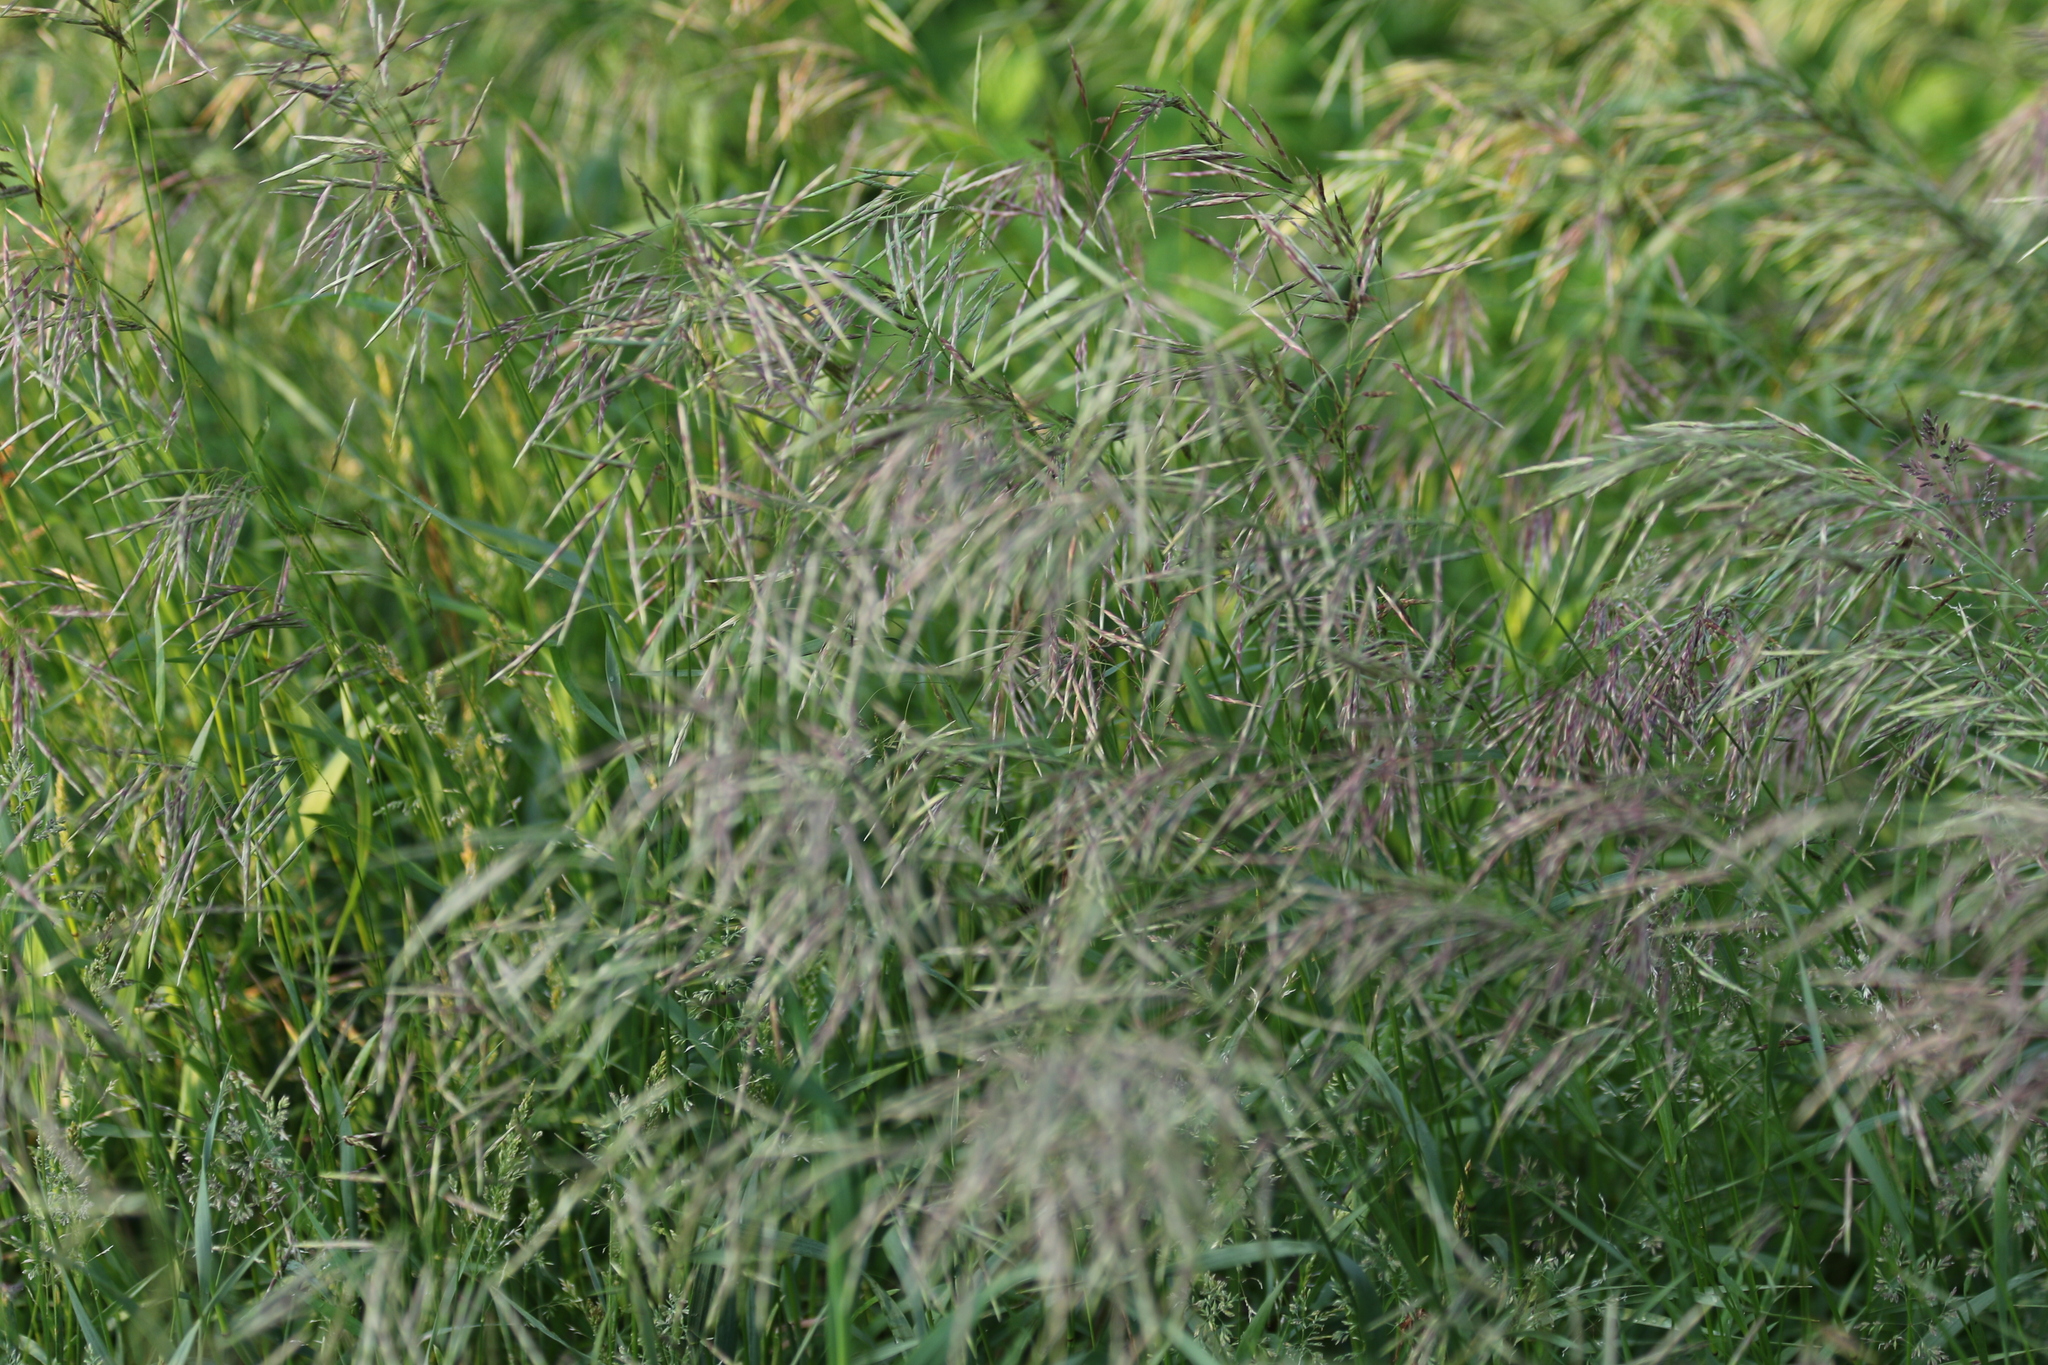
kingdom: Plantae
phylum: Tracheophyta
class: Liliopsida
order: Poales
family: Poaceae
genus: Bromus
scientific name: Bromus inermis
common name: Smooth brome
